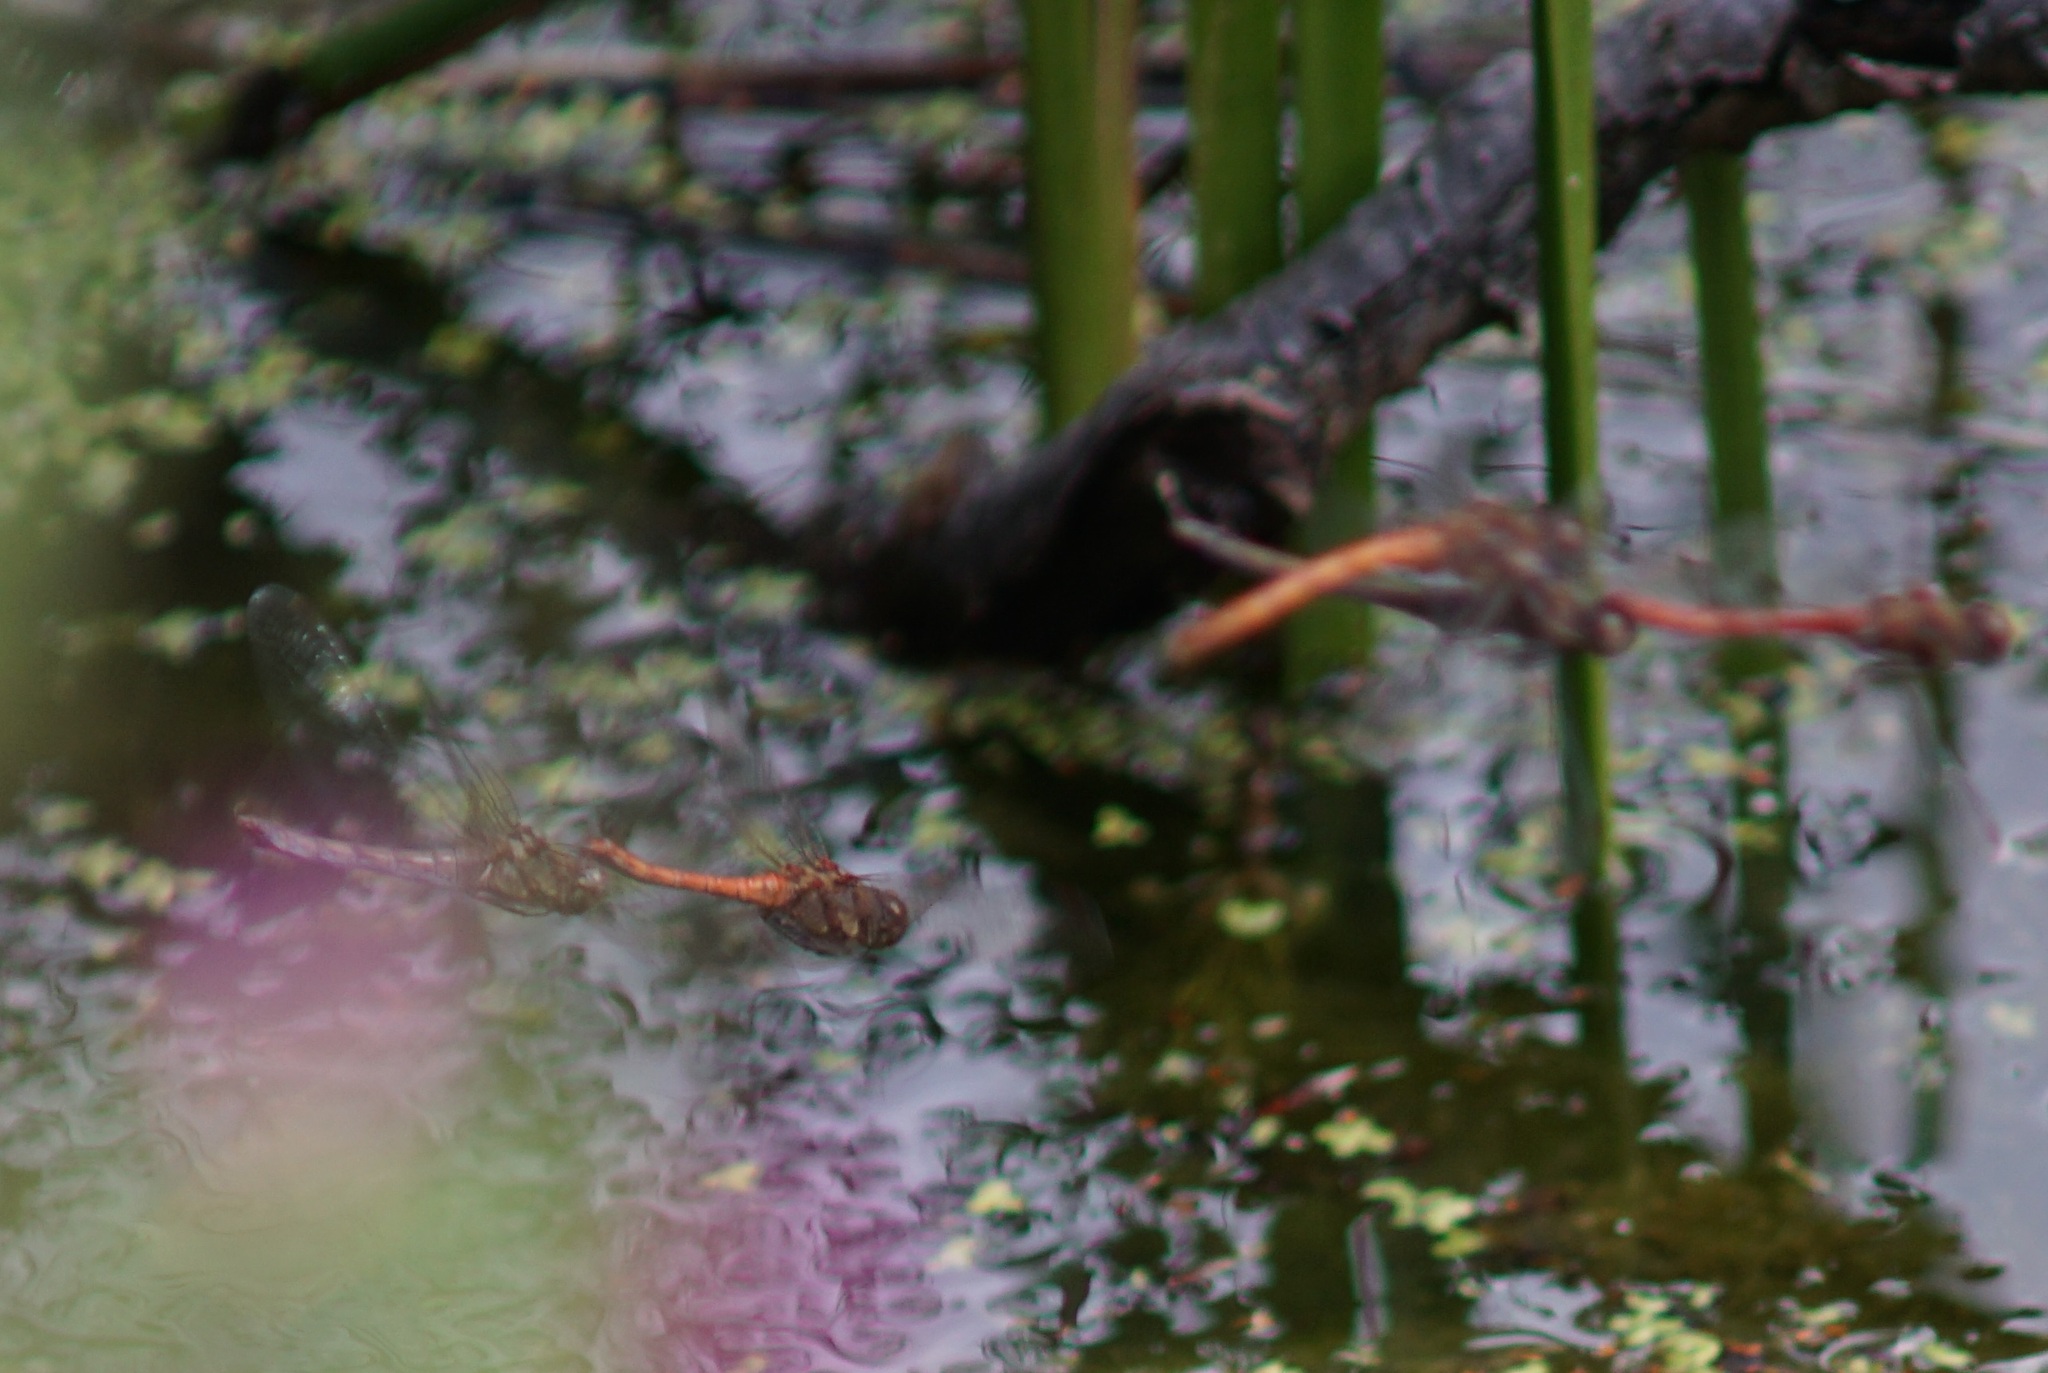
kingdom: Animalia
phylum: Arthropoda
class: Insecta
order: Odonata
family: Libellulidae
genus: Sympetrum
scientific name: Sympetrum striolatum
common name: Common darter
